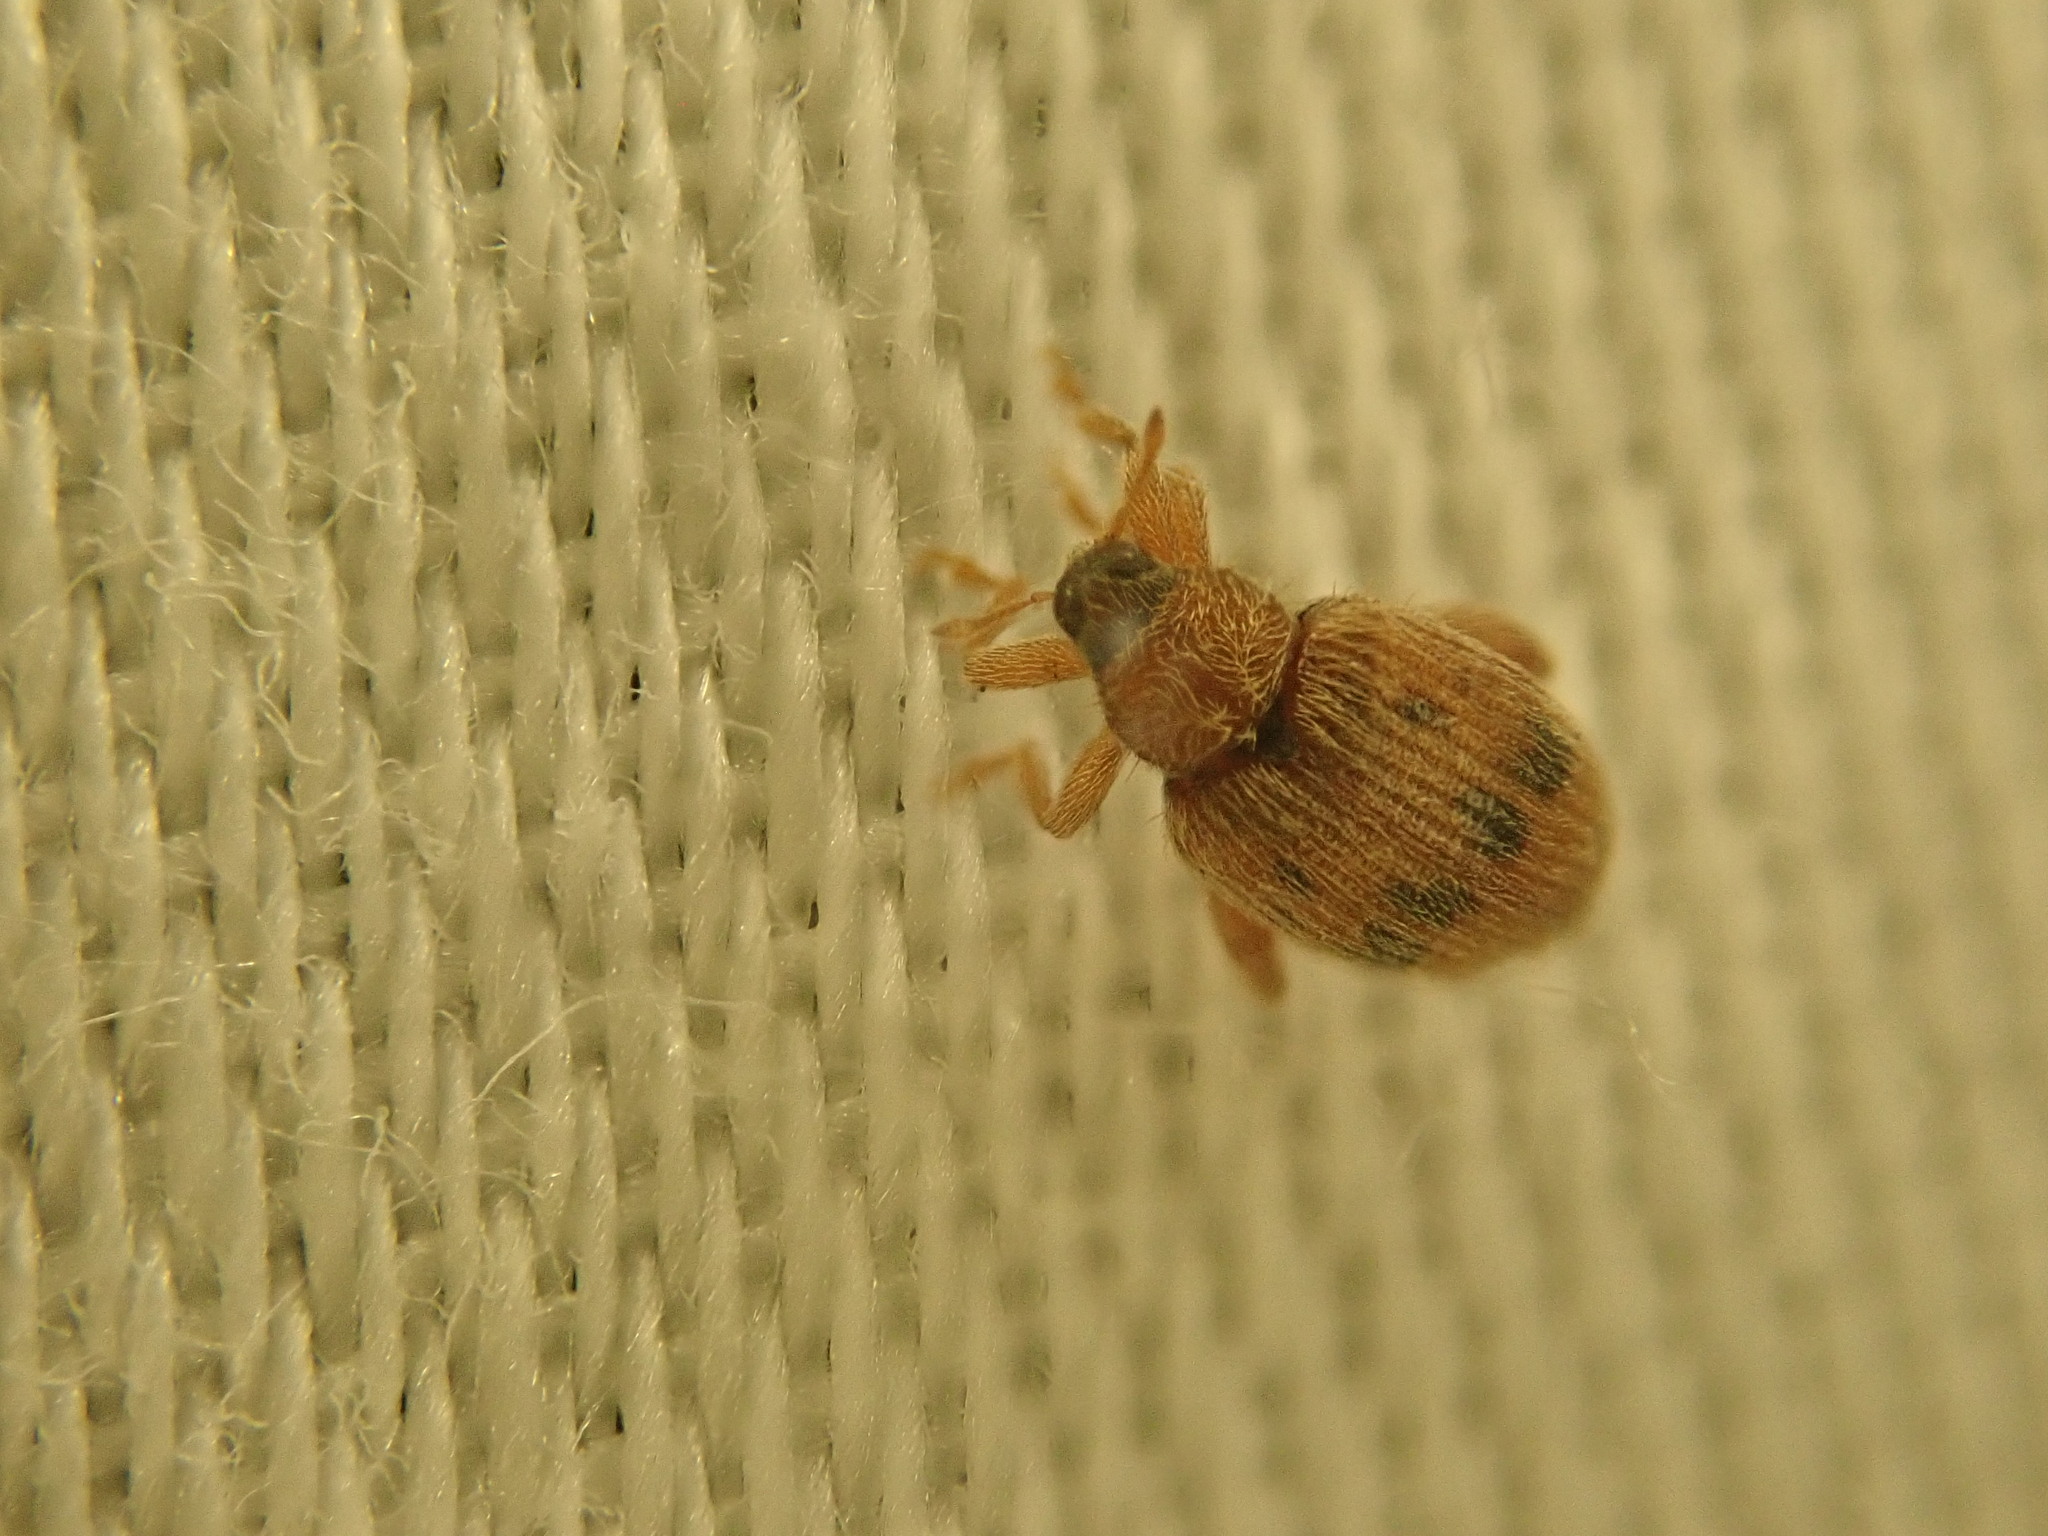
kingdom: Animalia
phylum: Arthropoda
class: Insecta
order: Coleoptera
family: Curculionidae
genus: Orchestes
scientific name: Orchestes steppensis
